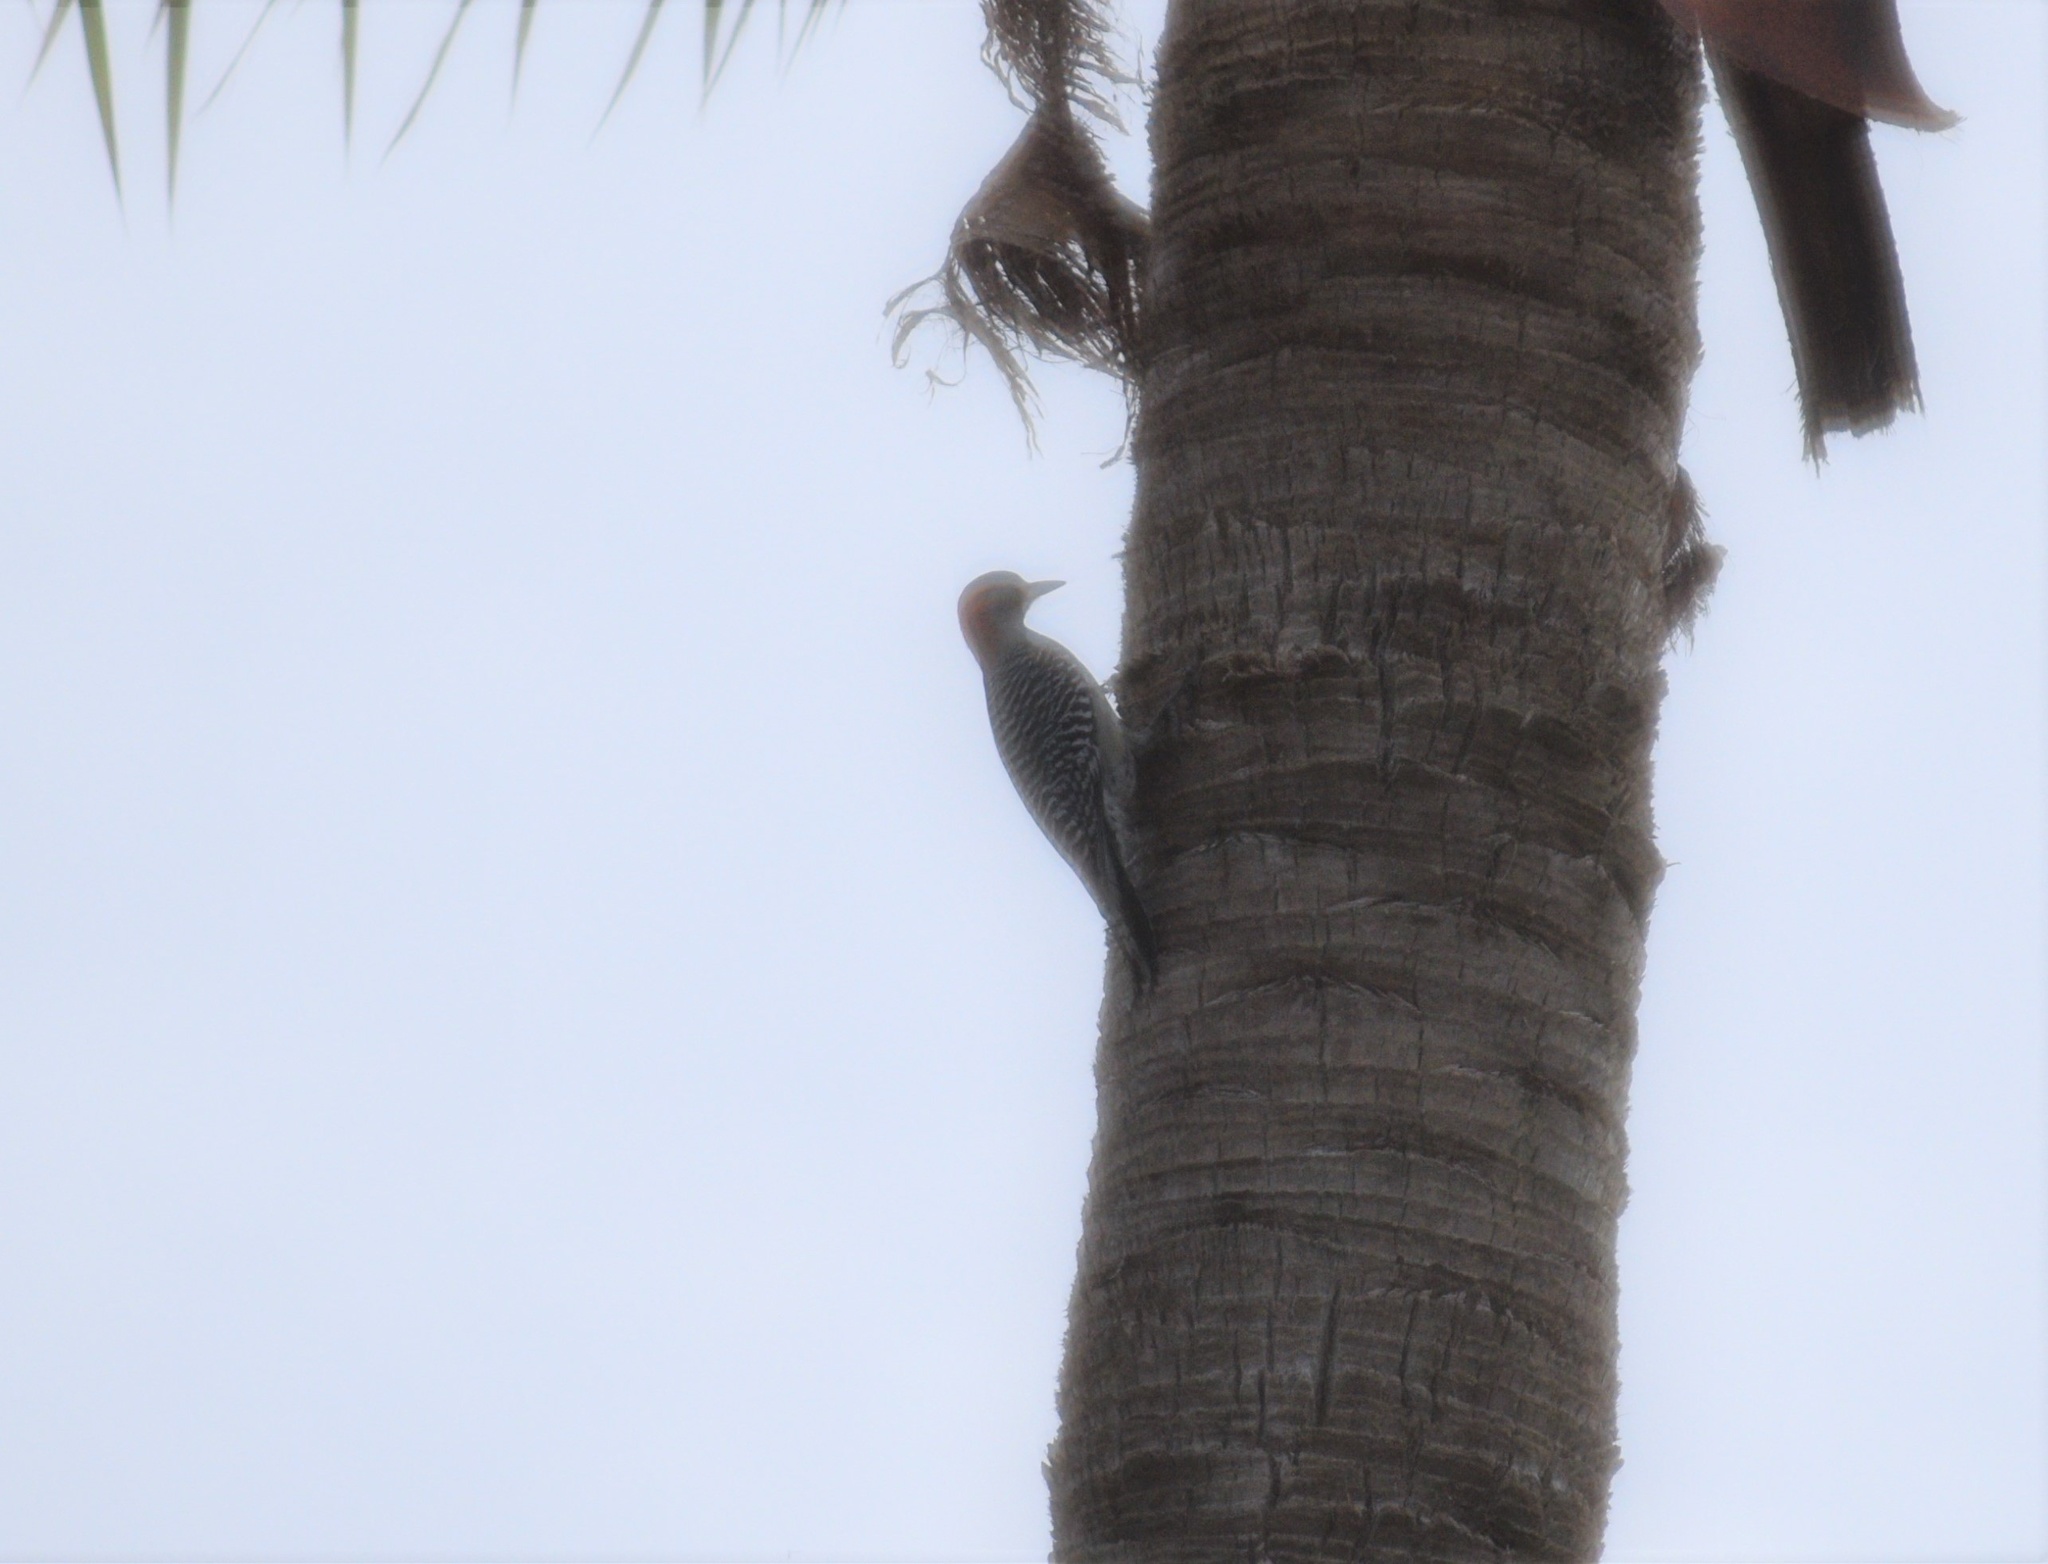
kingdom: Animalia
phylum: Chordata
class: Aves
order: Piciformes
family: Picidae
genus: Melanerpes
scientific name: Melanerpes carolinus
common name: Red-bellied woodpecker
